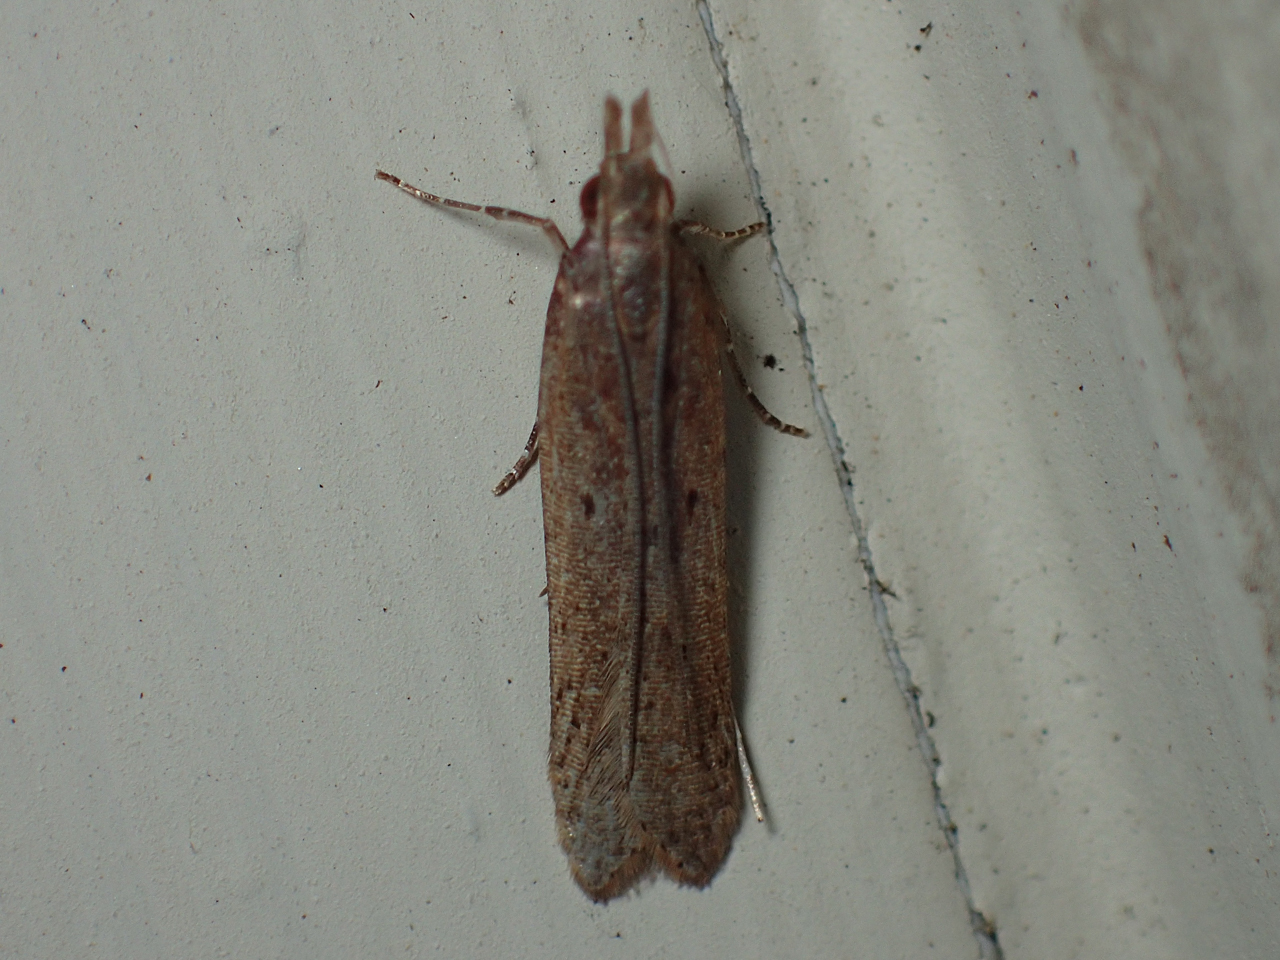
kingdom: Animalia
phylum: Arthropoda
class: Insecta
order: Lepidoptera
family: Gelechiidae
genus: Dichomeris
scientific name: Dichomeris ligulella
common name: Moth
